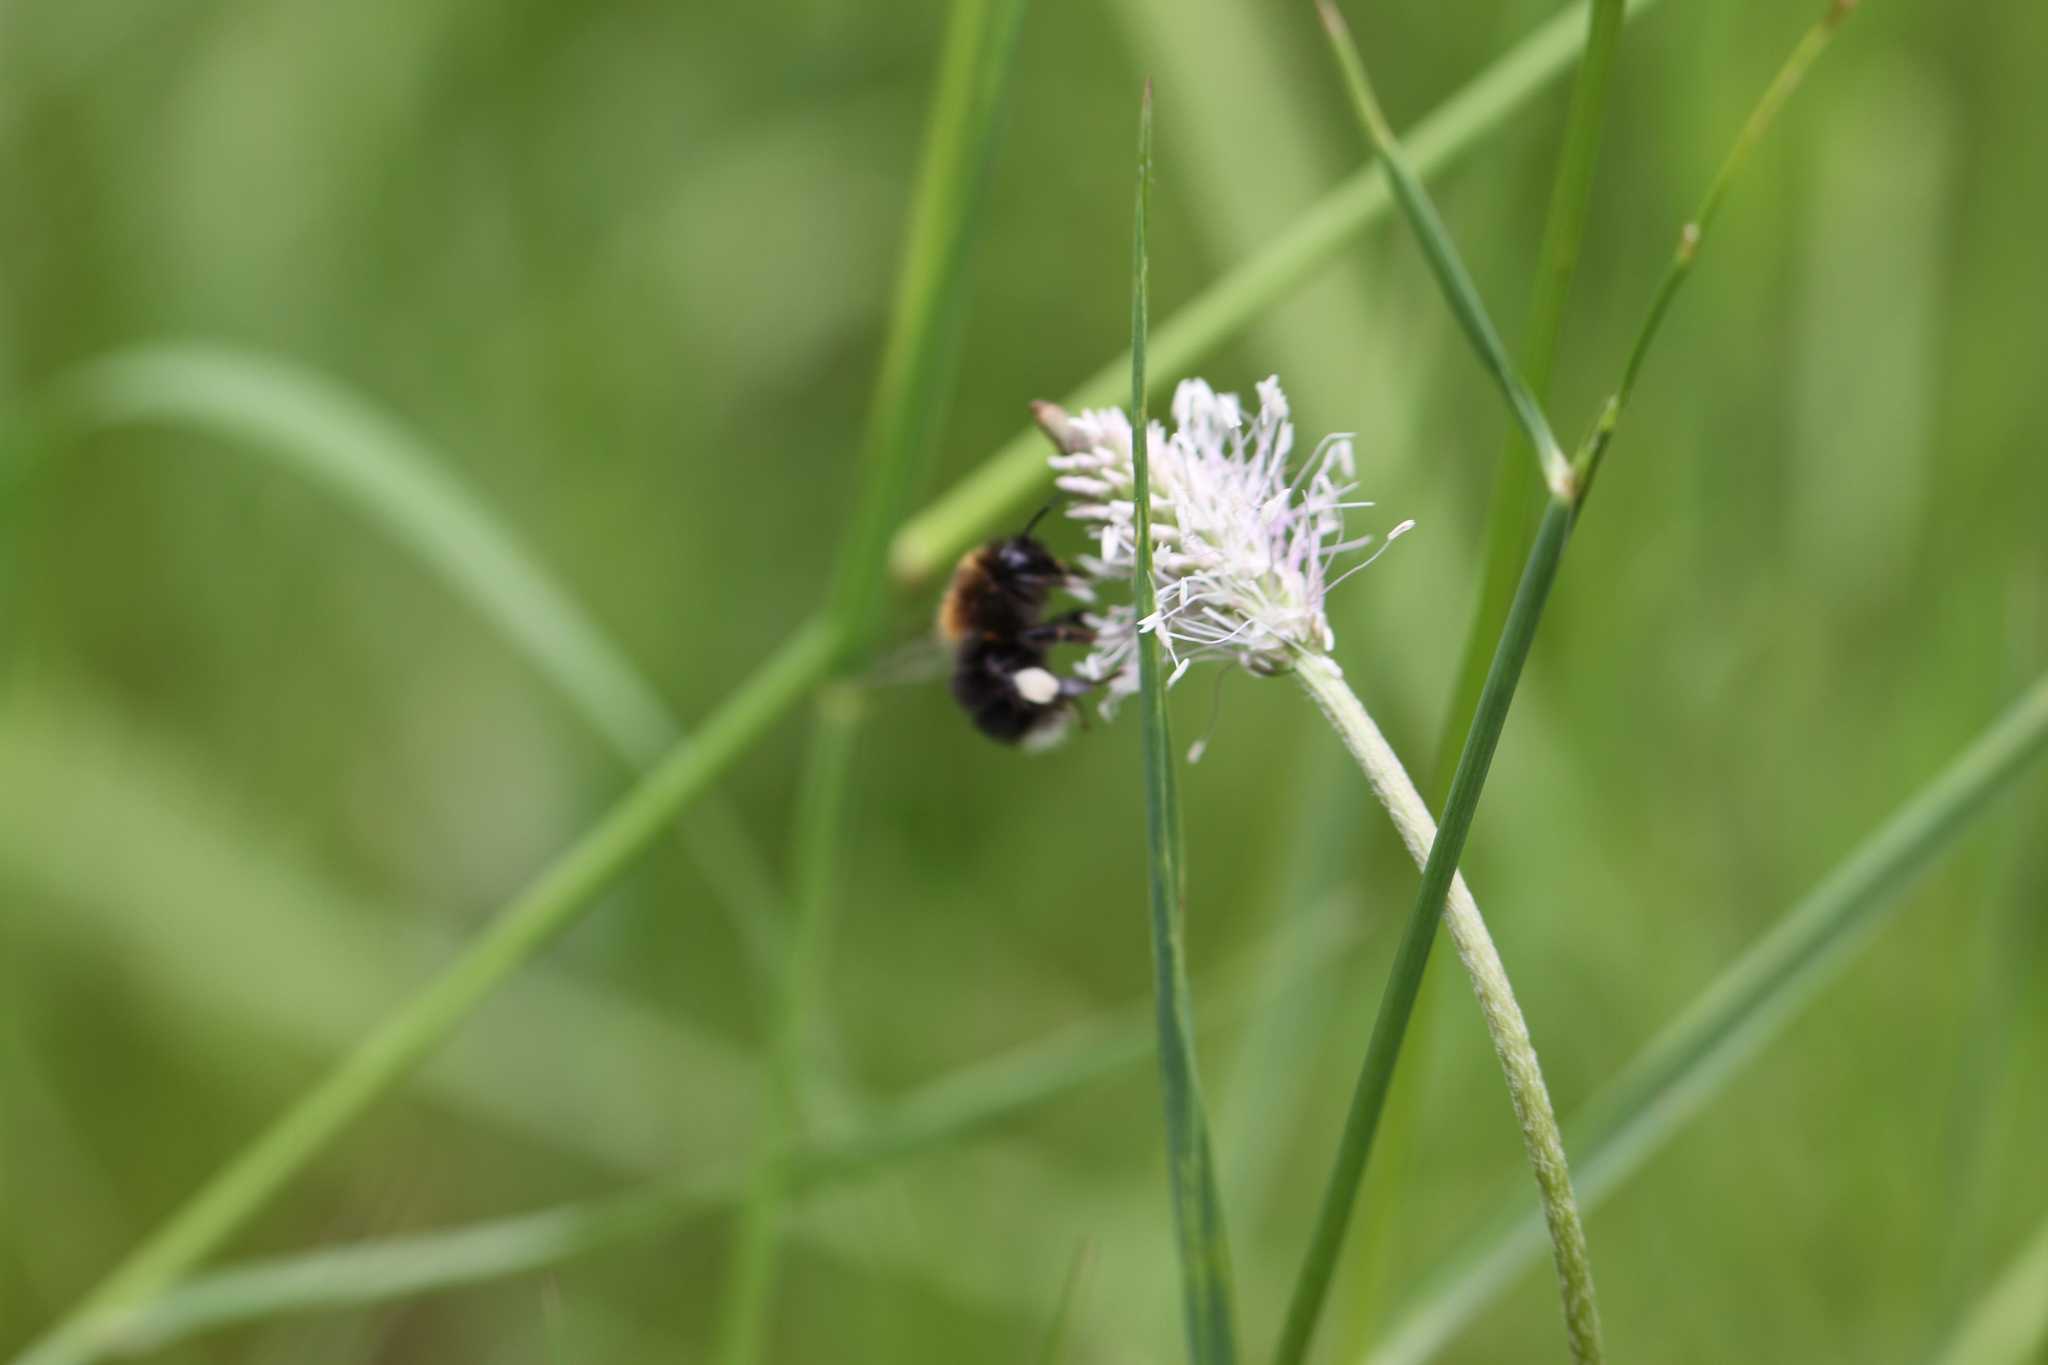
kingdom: Animalia
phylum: Arthropoda
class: Insecta
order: Hymenoptera
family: Apidae
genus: Bombus
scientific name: Bombus hypnorum
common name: New garden bumblebee
